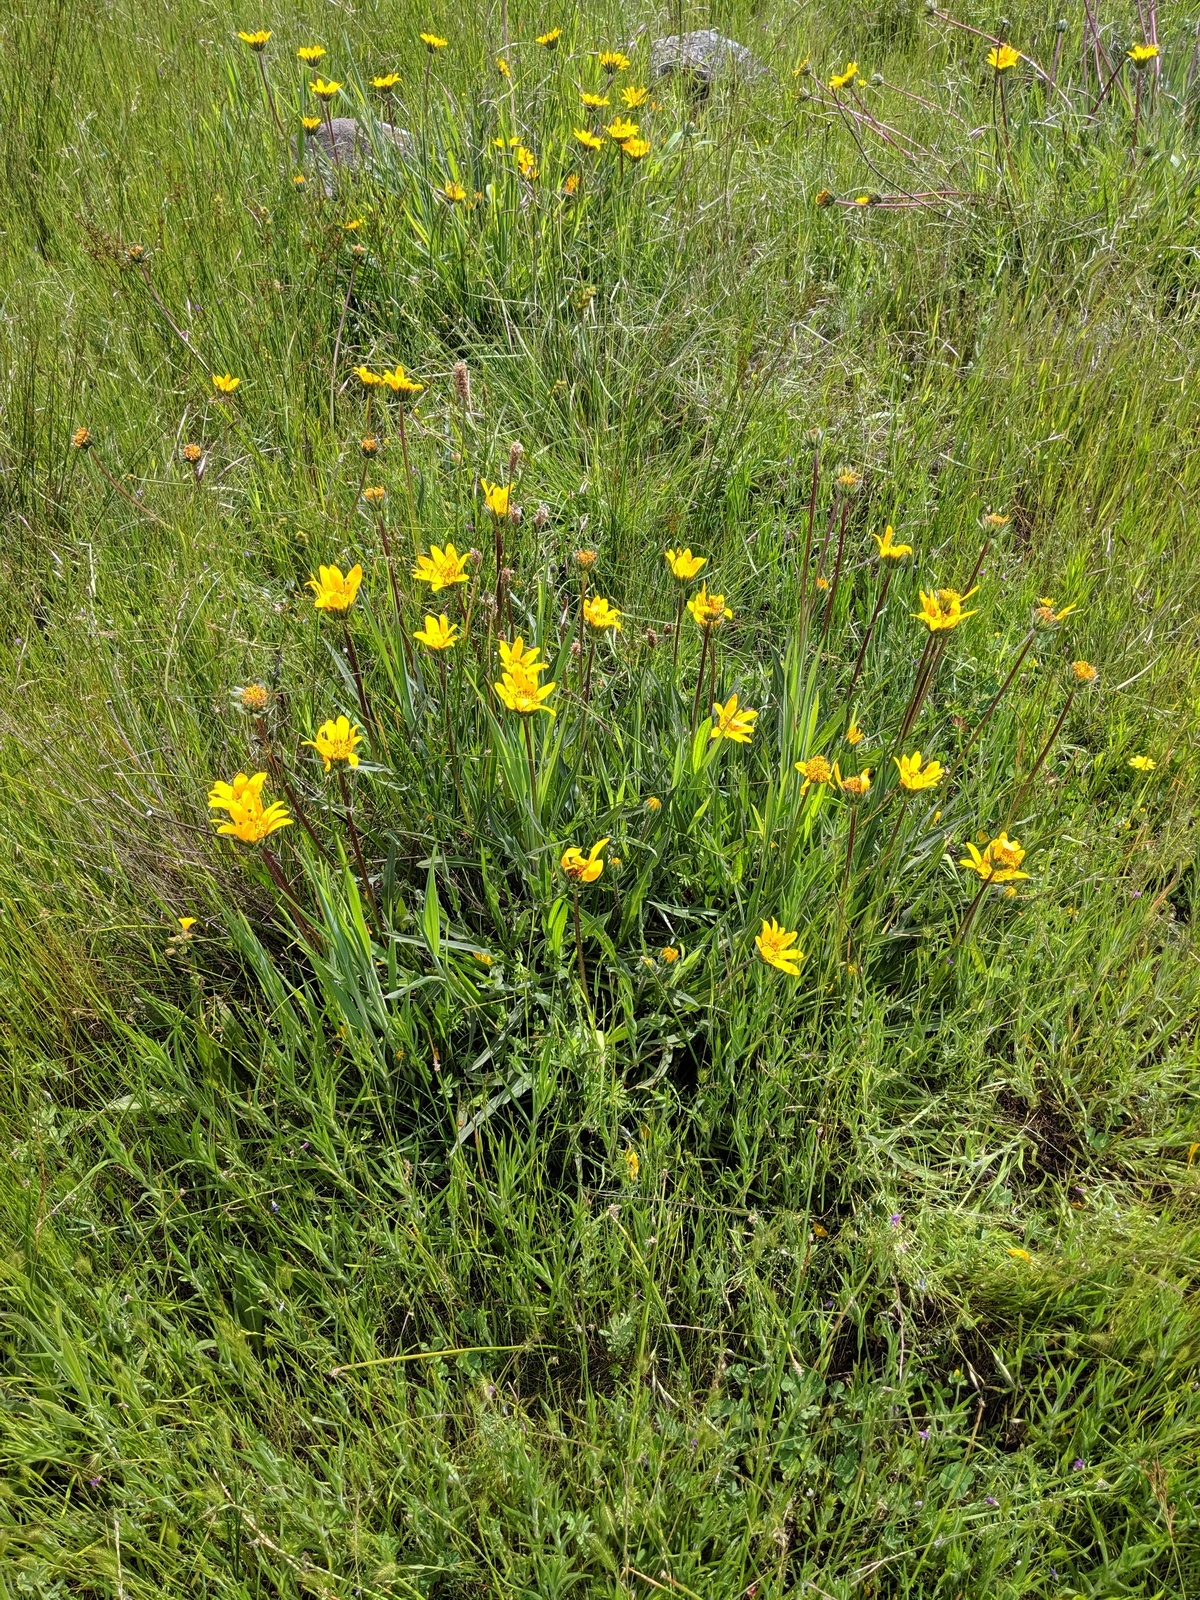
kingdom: Plantae
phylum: Tracheophyta
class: Magnoliopsida
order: Asterales
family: Asteraceae
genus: Wyethia
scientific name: Wyethia angustifolia
